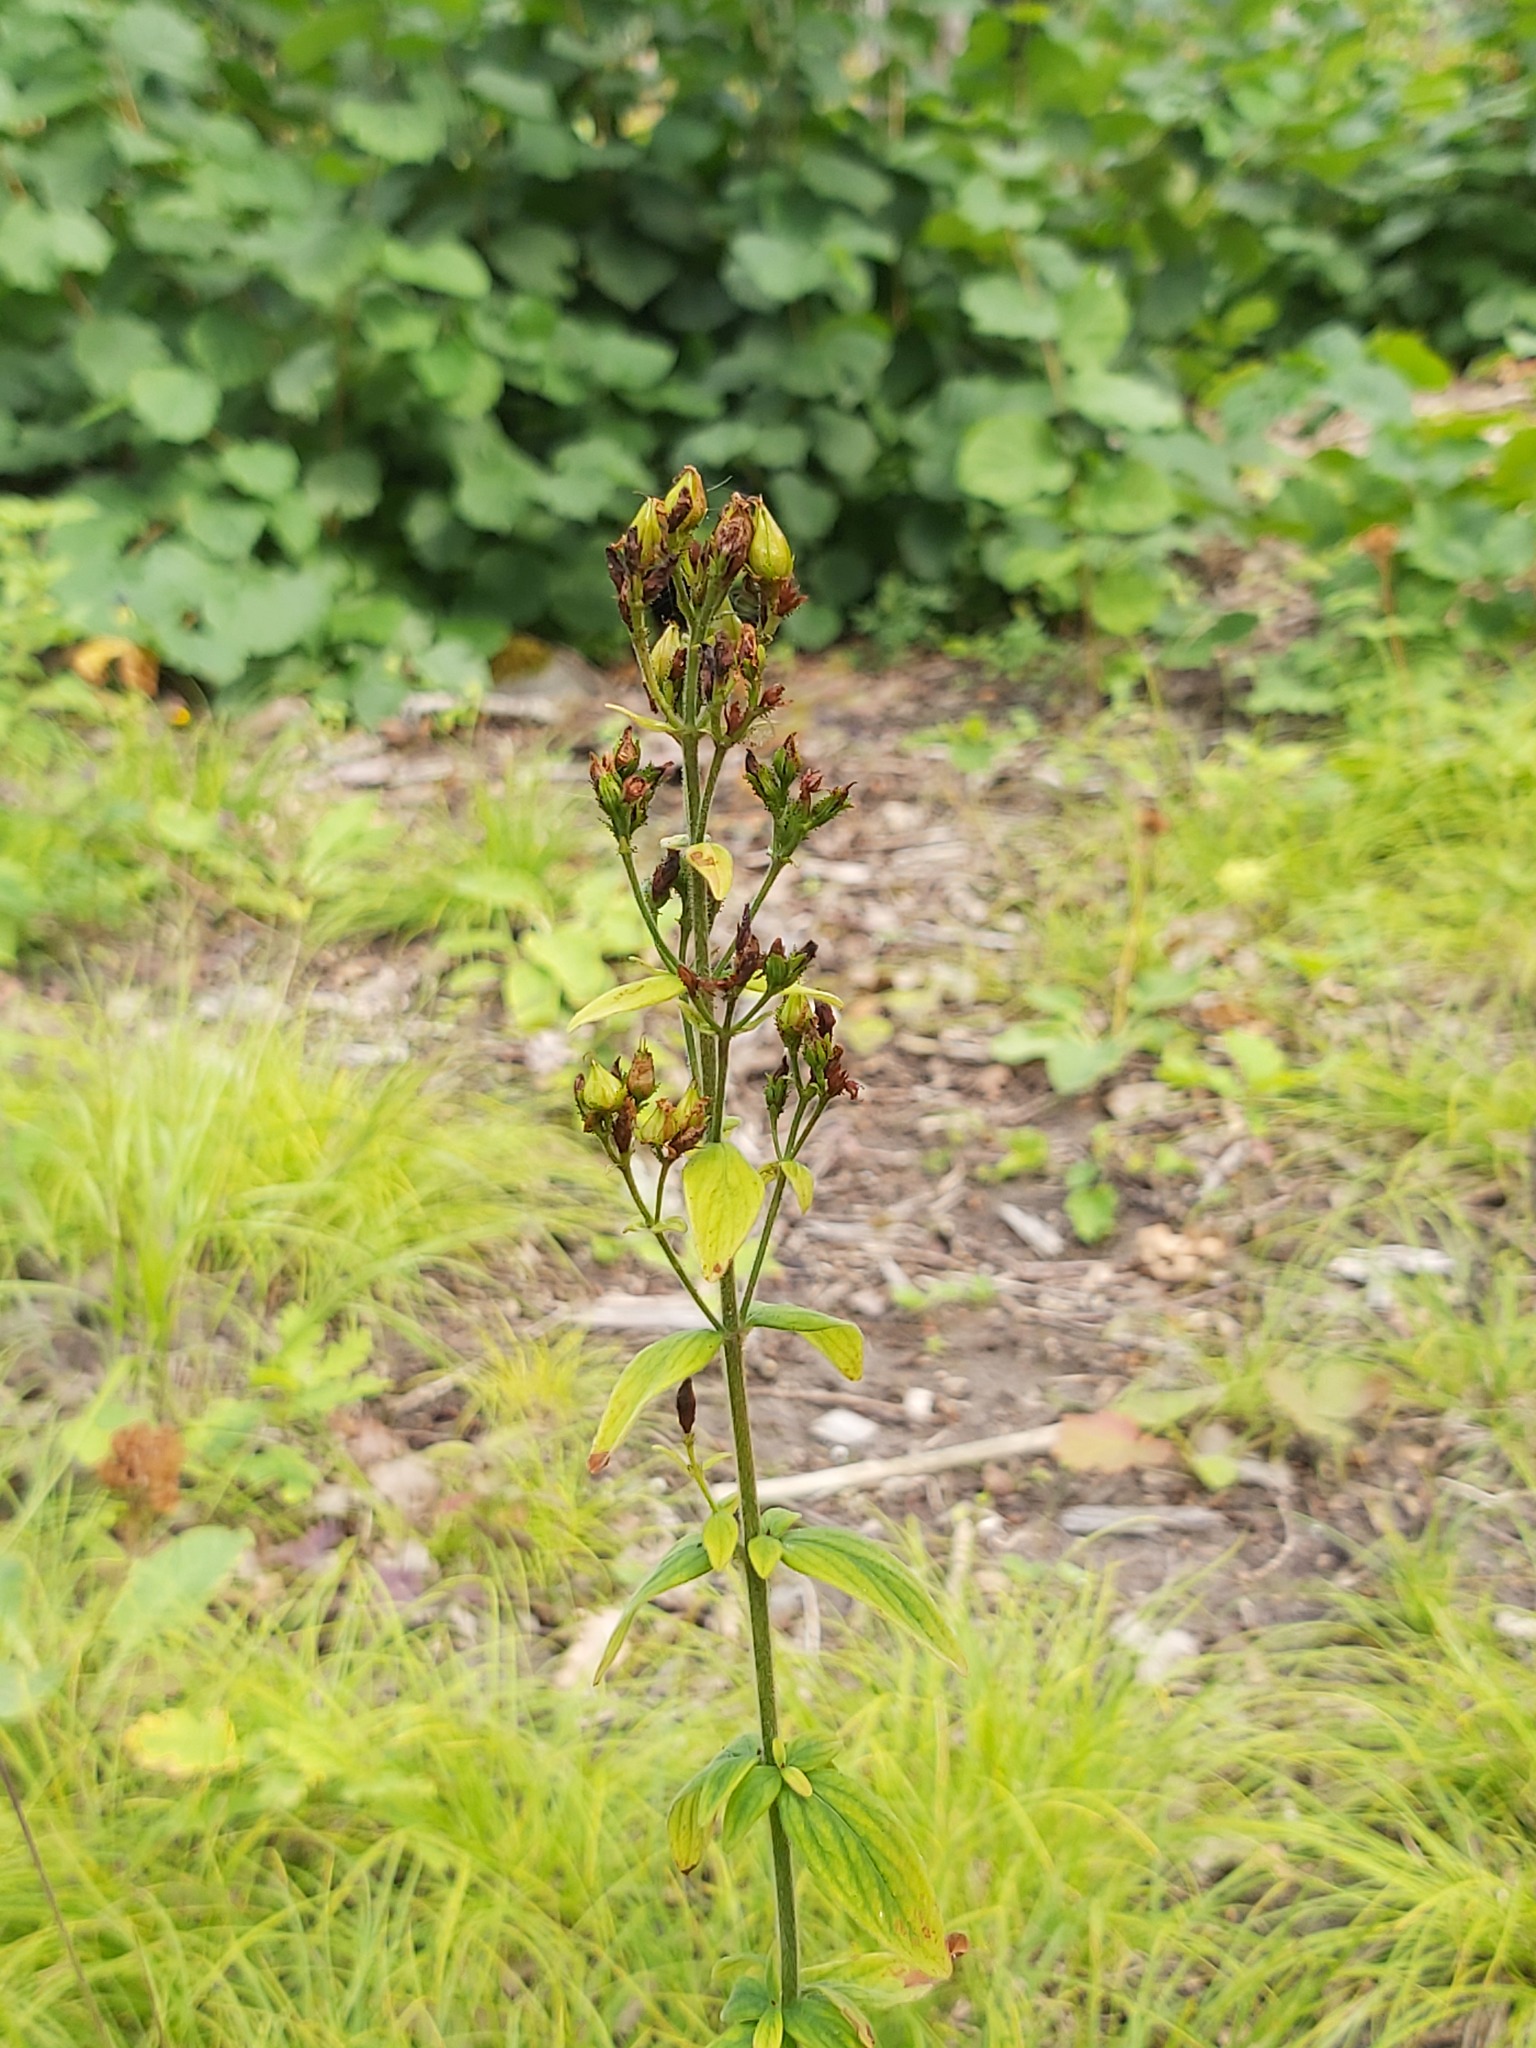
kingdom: Plantae
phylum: Tracheophyta
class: Magnoliopsida
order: Malpighiales
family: Hypericaceae
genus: Hypericum
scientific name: Hypericum hirsutum
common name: Hairy st. john's-wort
